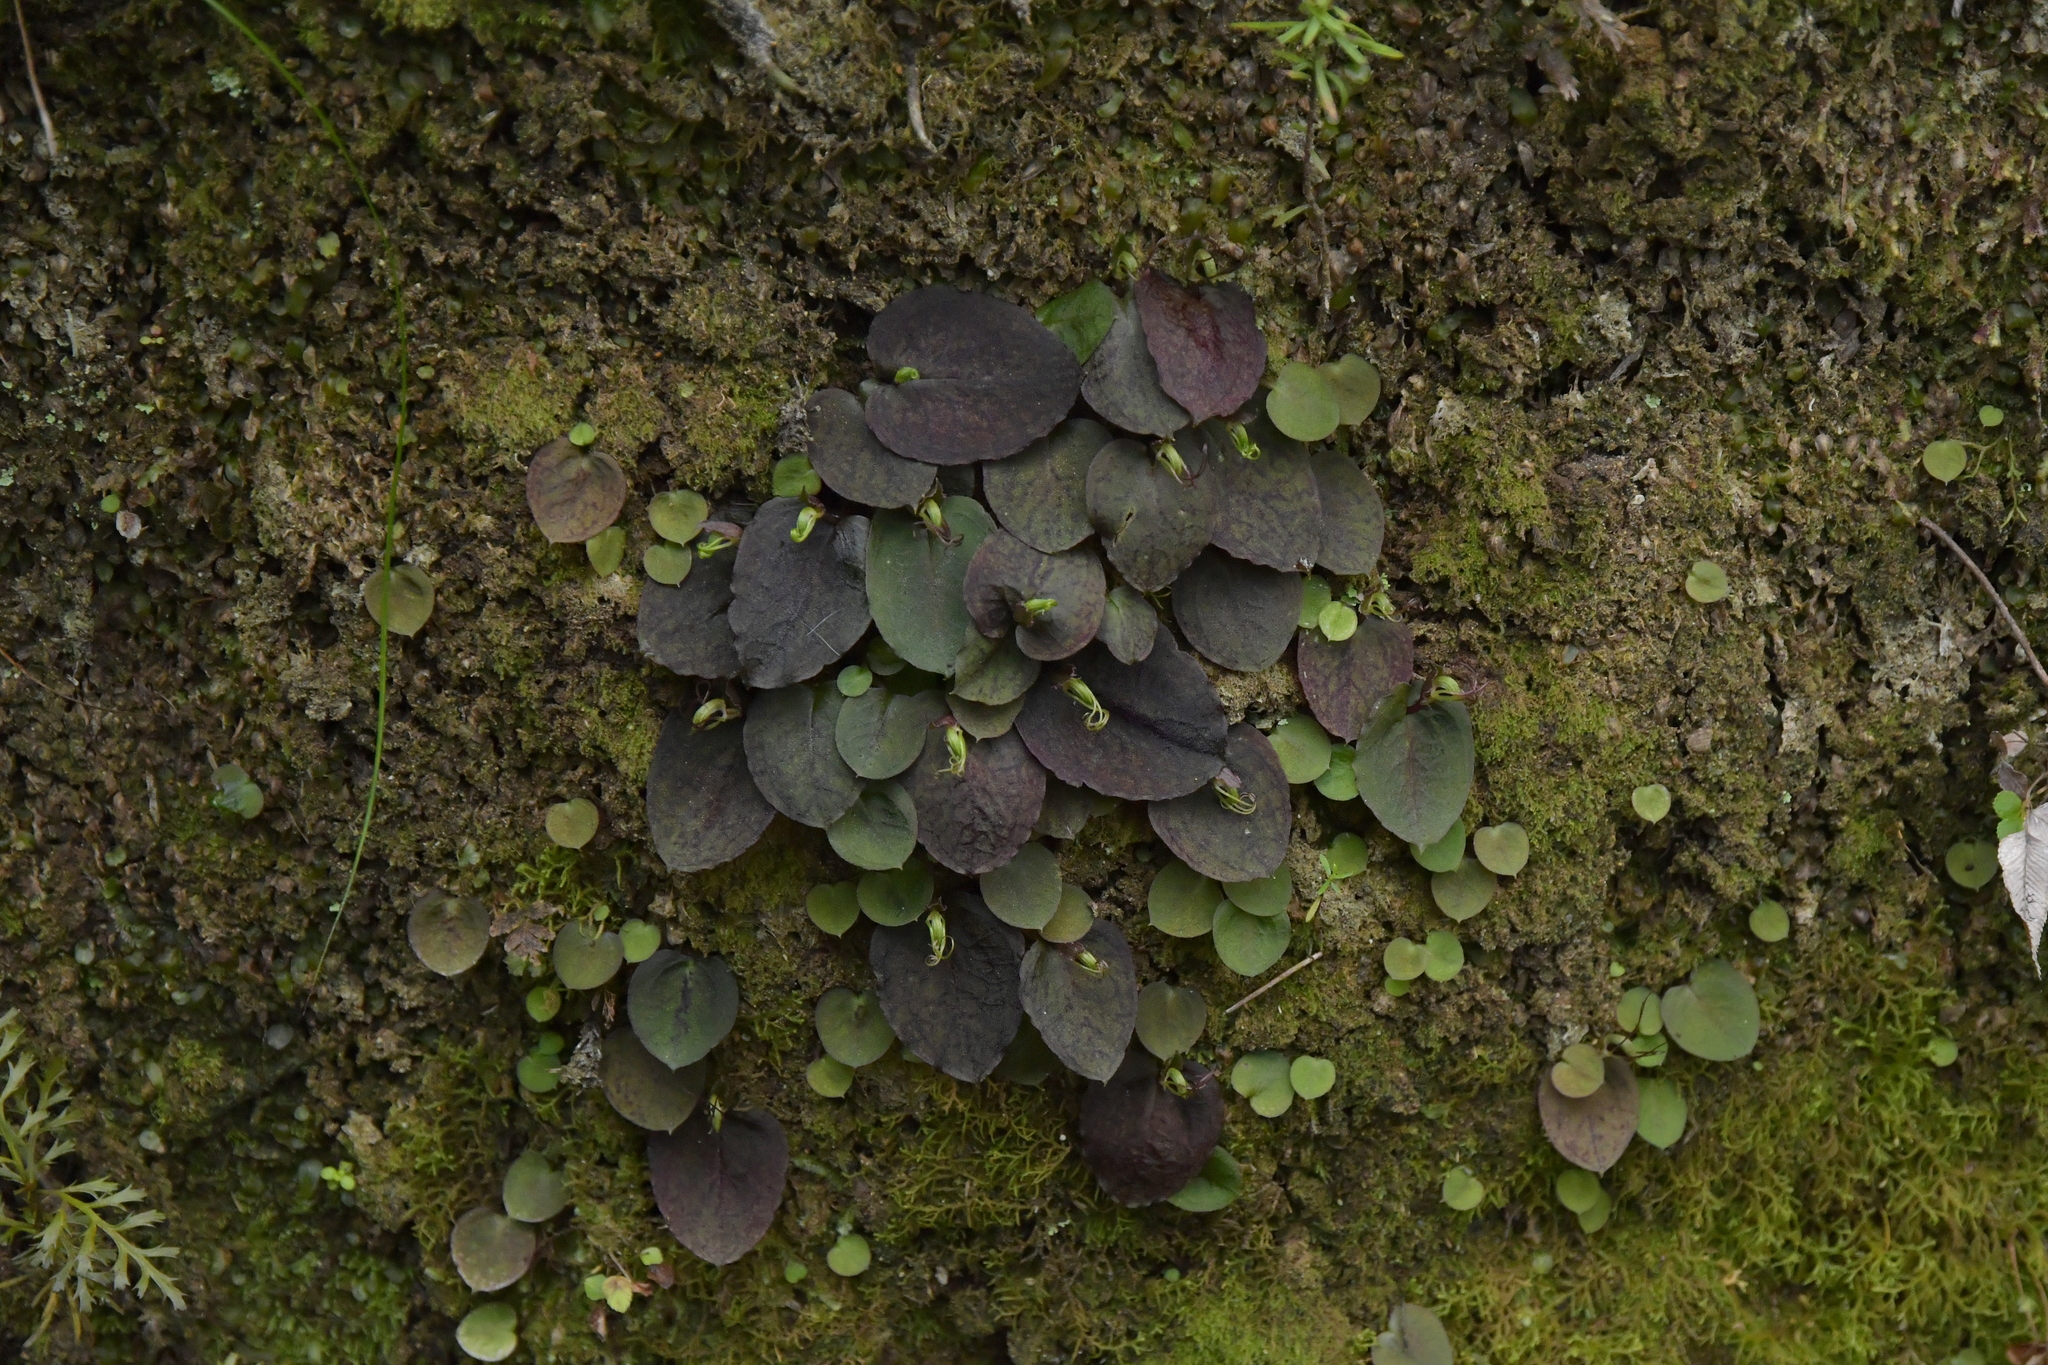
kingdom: Plantae
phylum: Tracheophyta
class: Liliopsida
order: Asparagales
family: Orchidaceae
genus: Corybas
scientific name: Corybas oblongus
